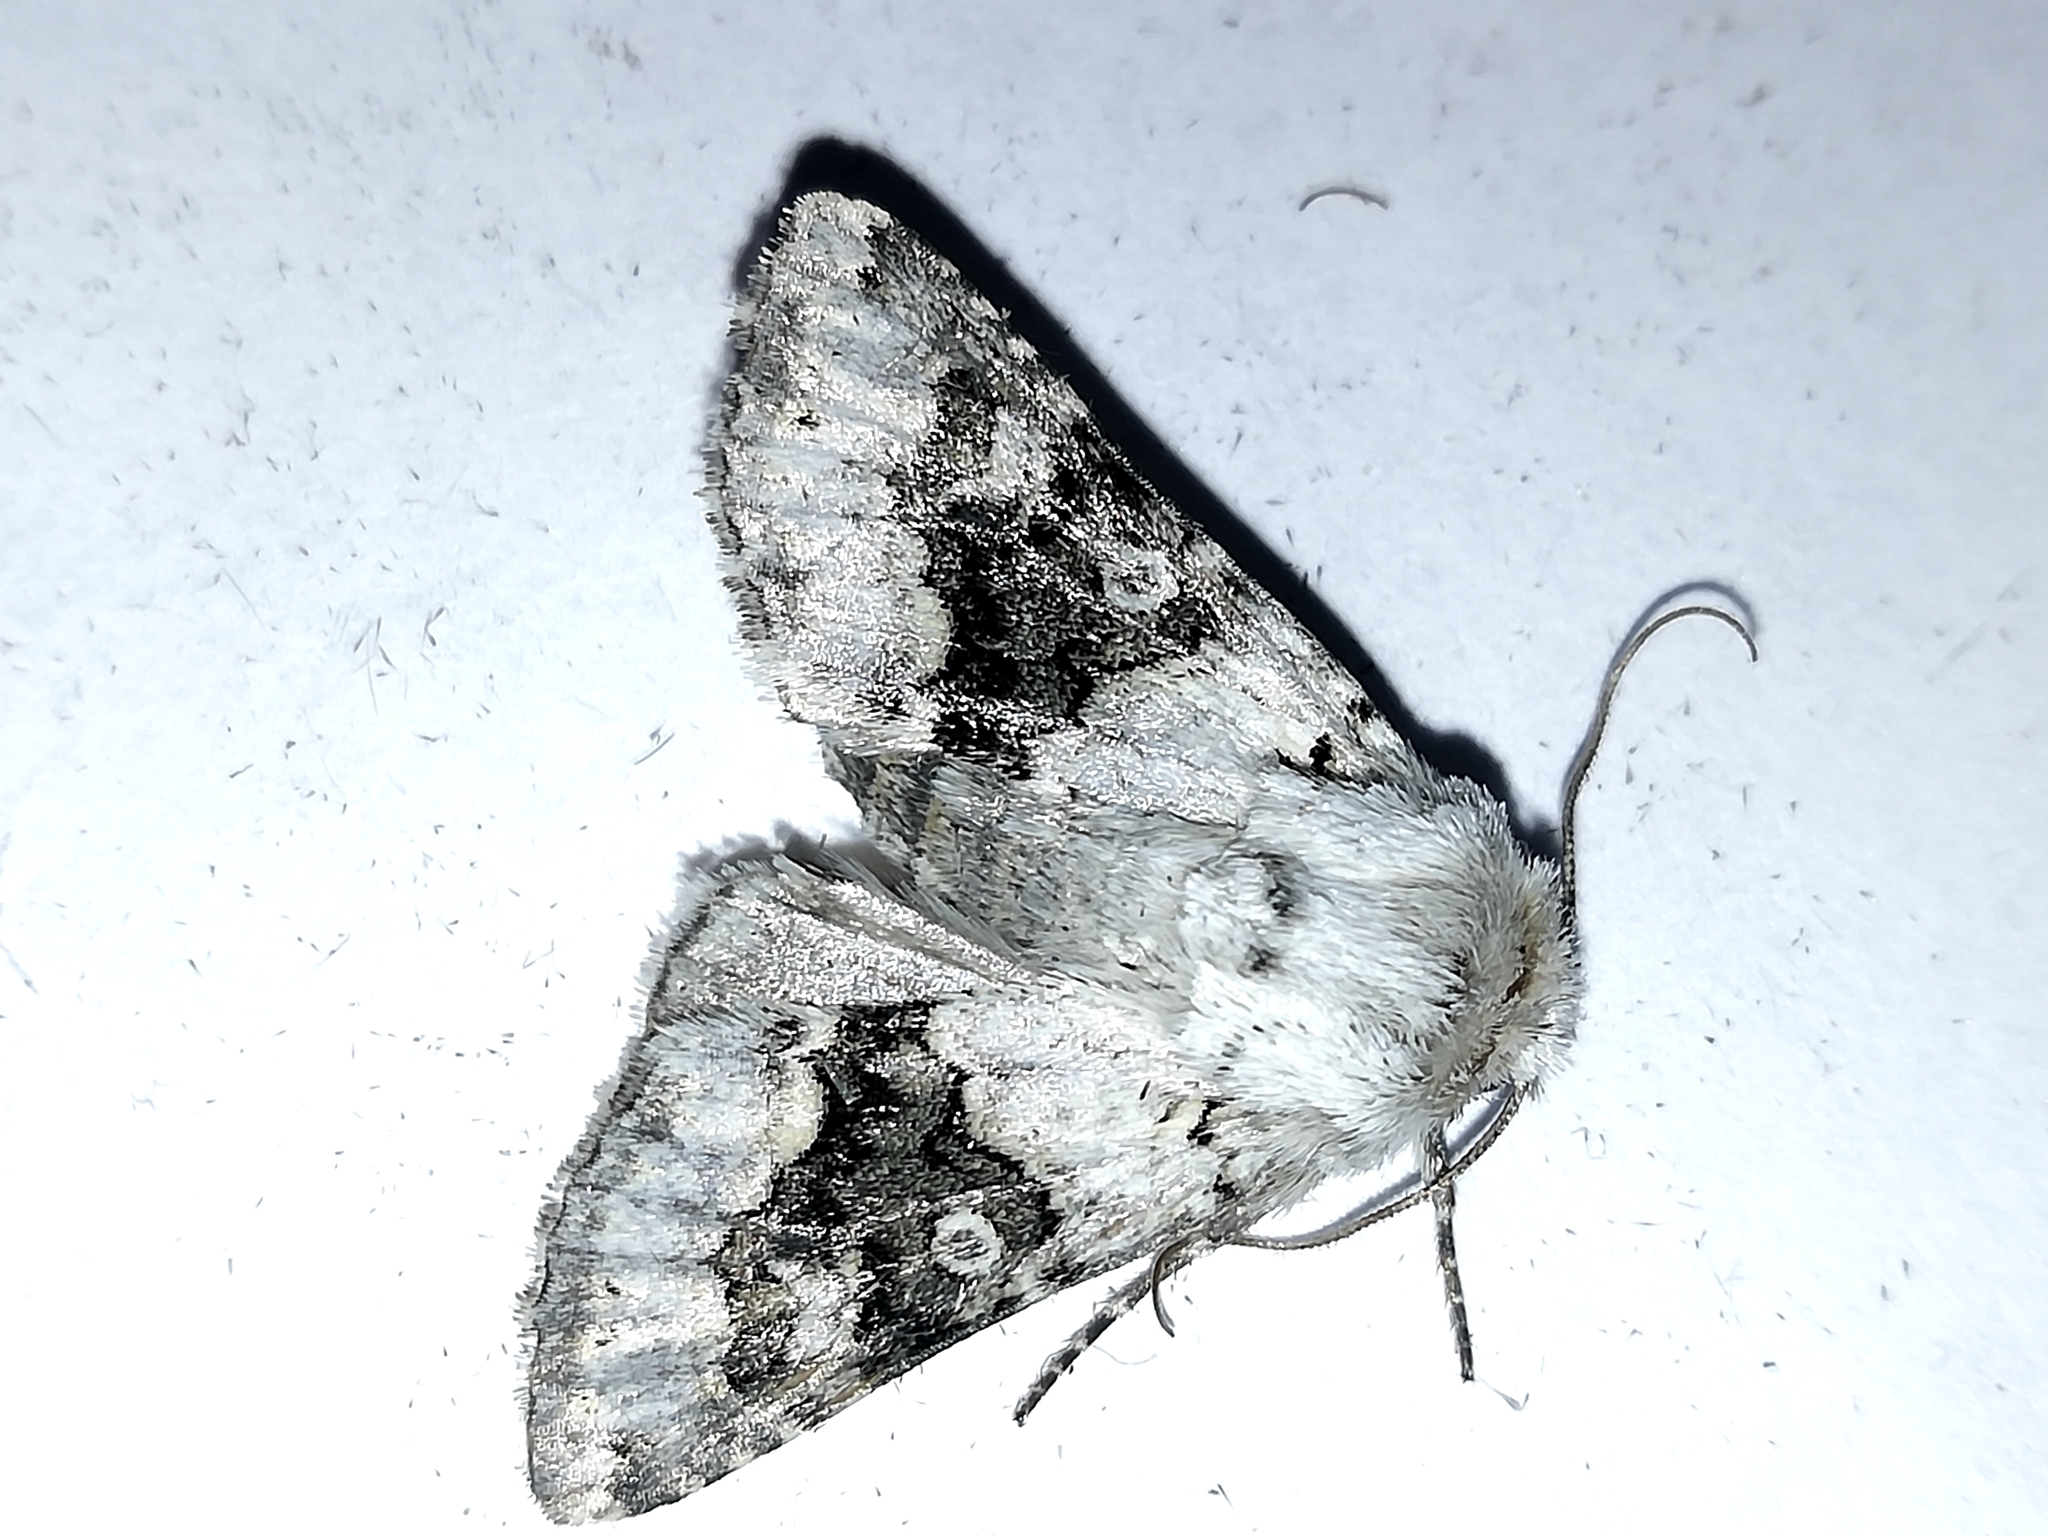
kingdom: Animalia
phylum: Arthropoda
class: Insecta
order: Lepidoptera
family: Noctuidae
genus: Hecatera
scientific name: Hecatera bicolorata
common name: Broad-barred white
